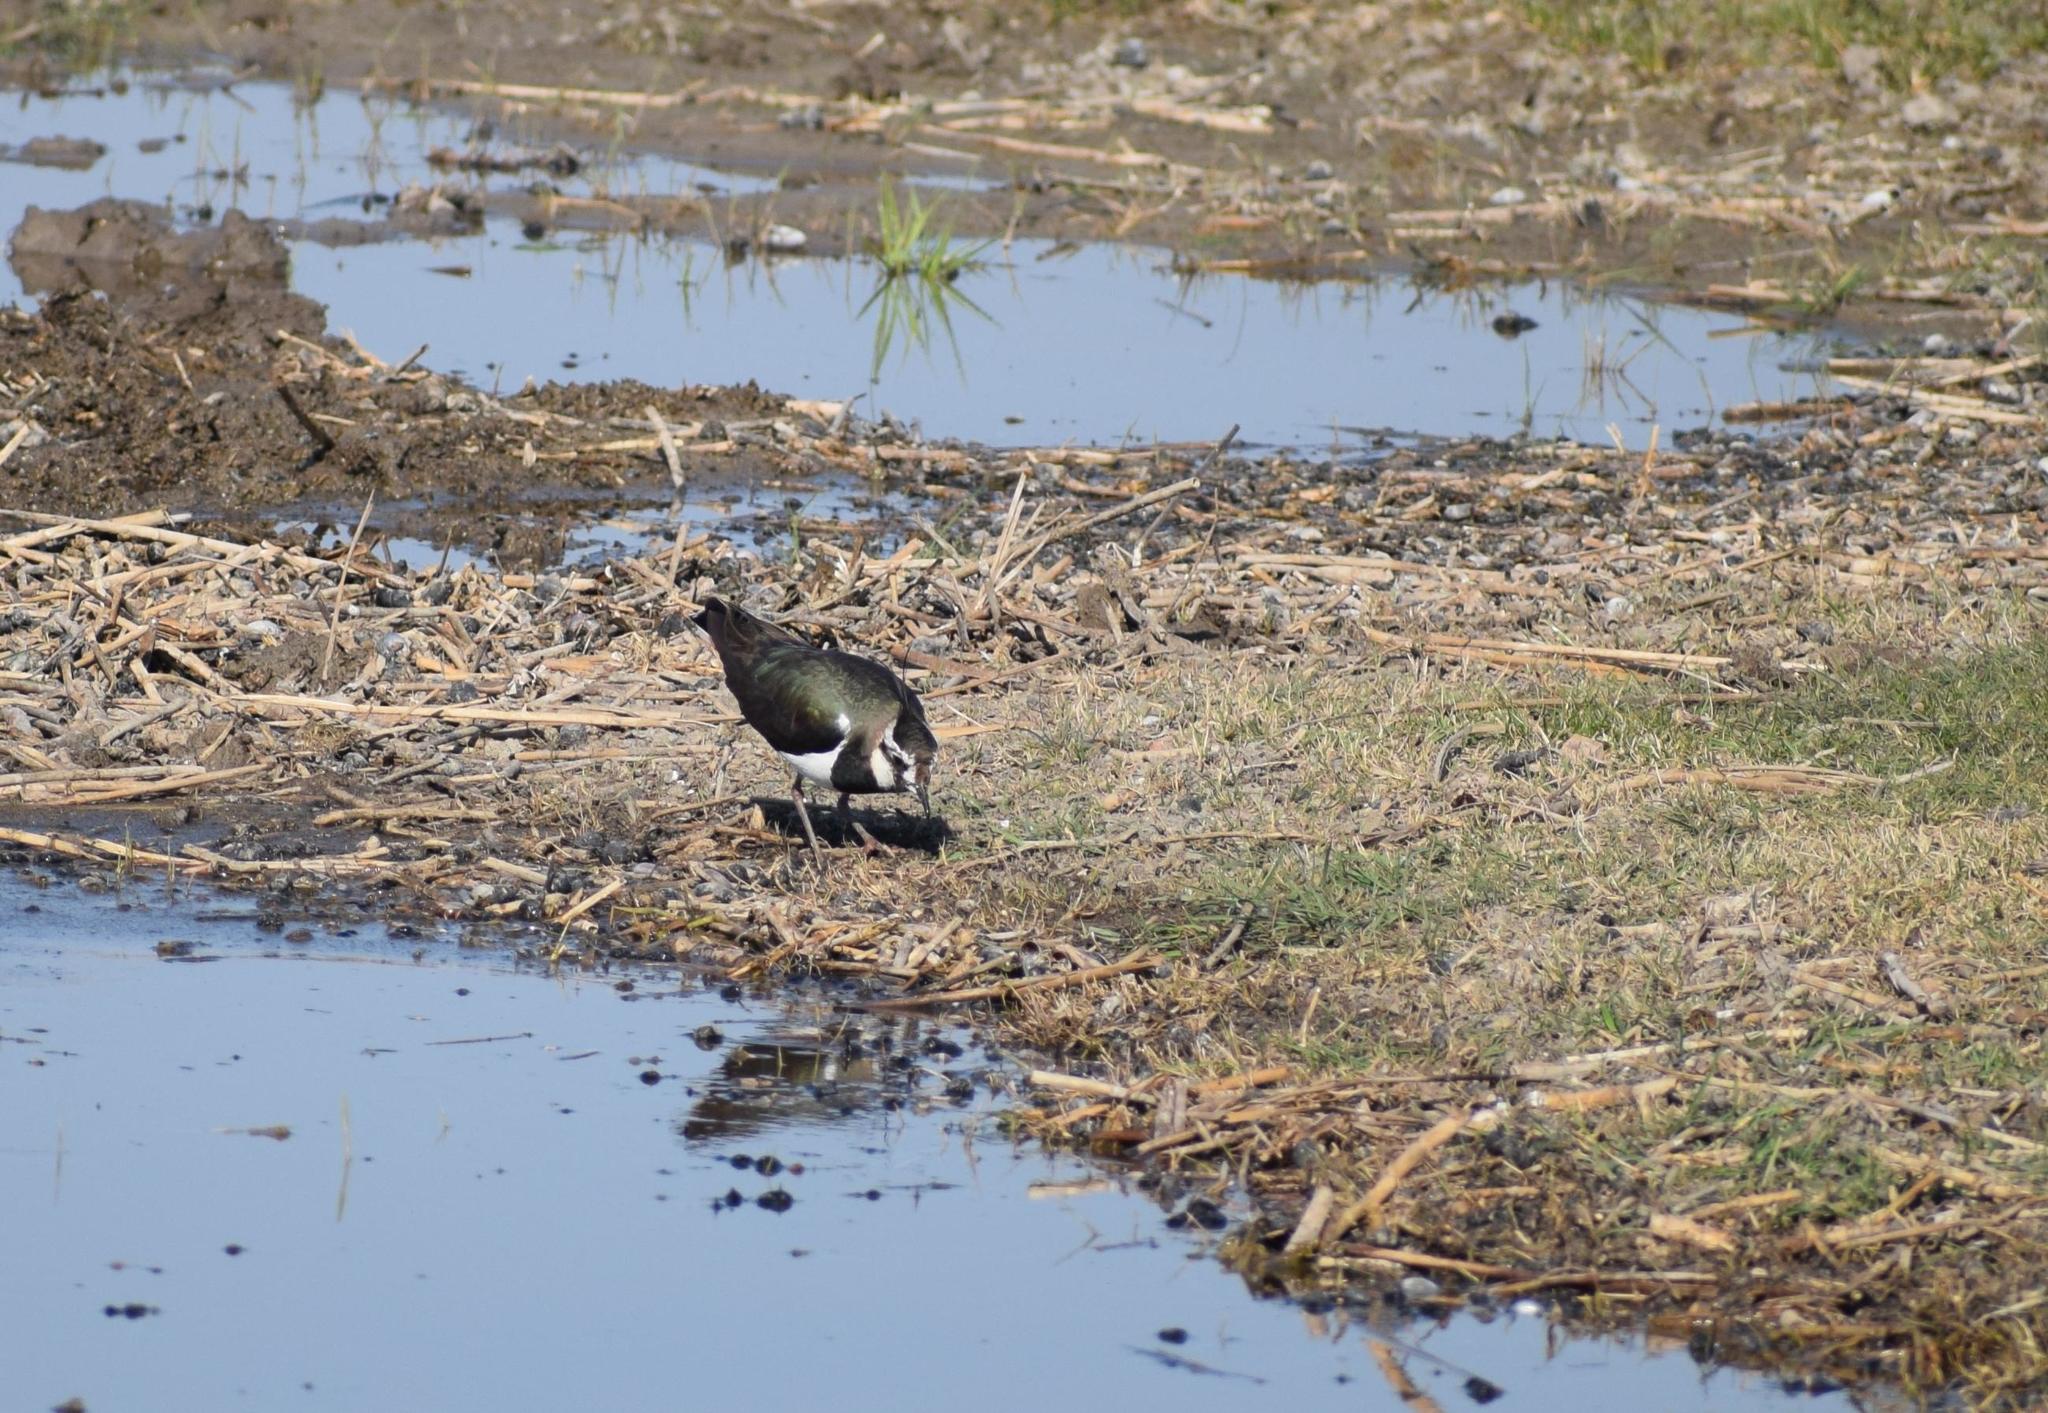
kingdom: Animalia
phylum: Chordata
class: Aves
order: Charadriiformes
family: Charadriidae
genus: Vanellus
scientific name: Vanellus vanellus
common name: Northern lapwing
